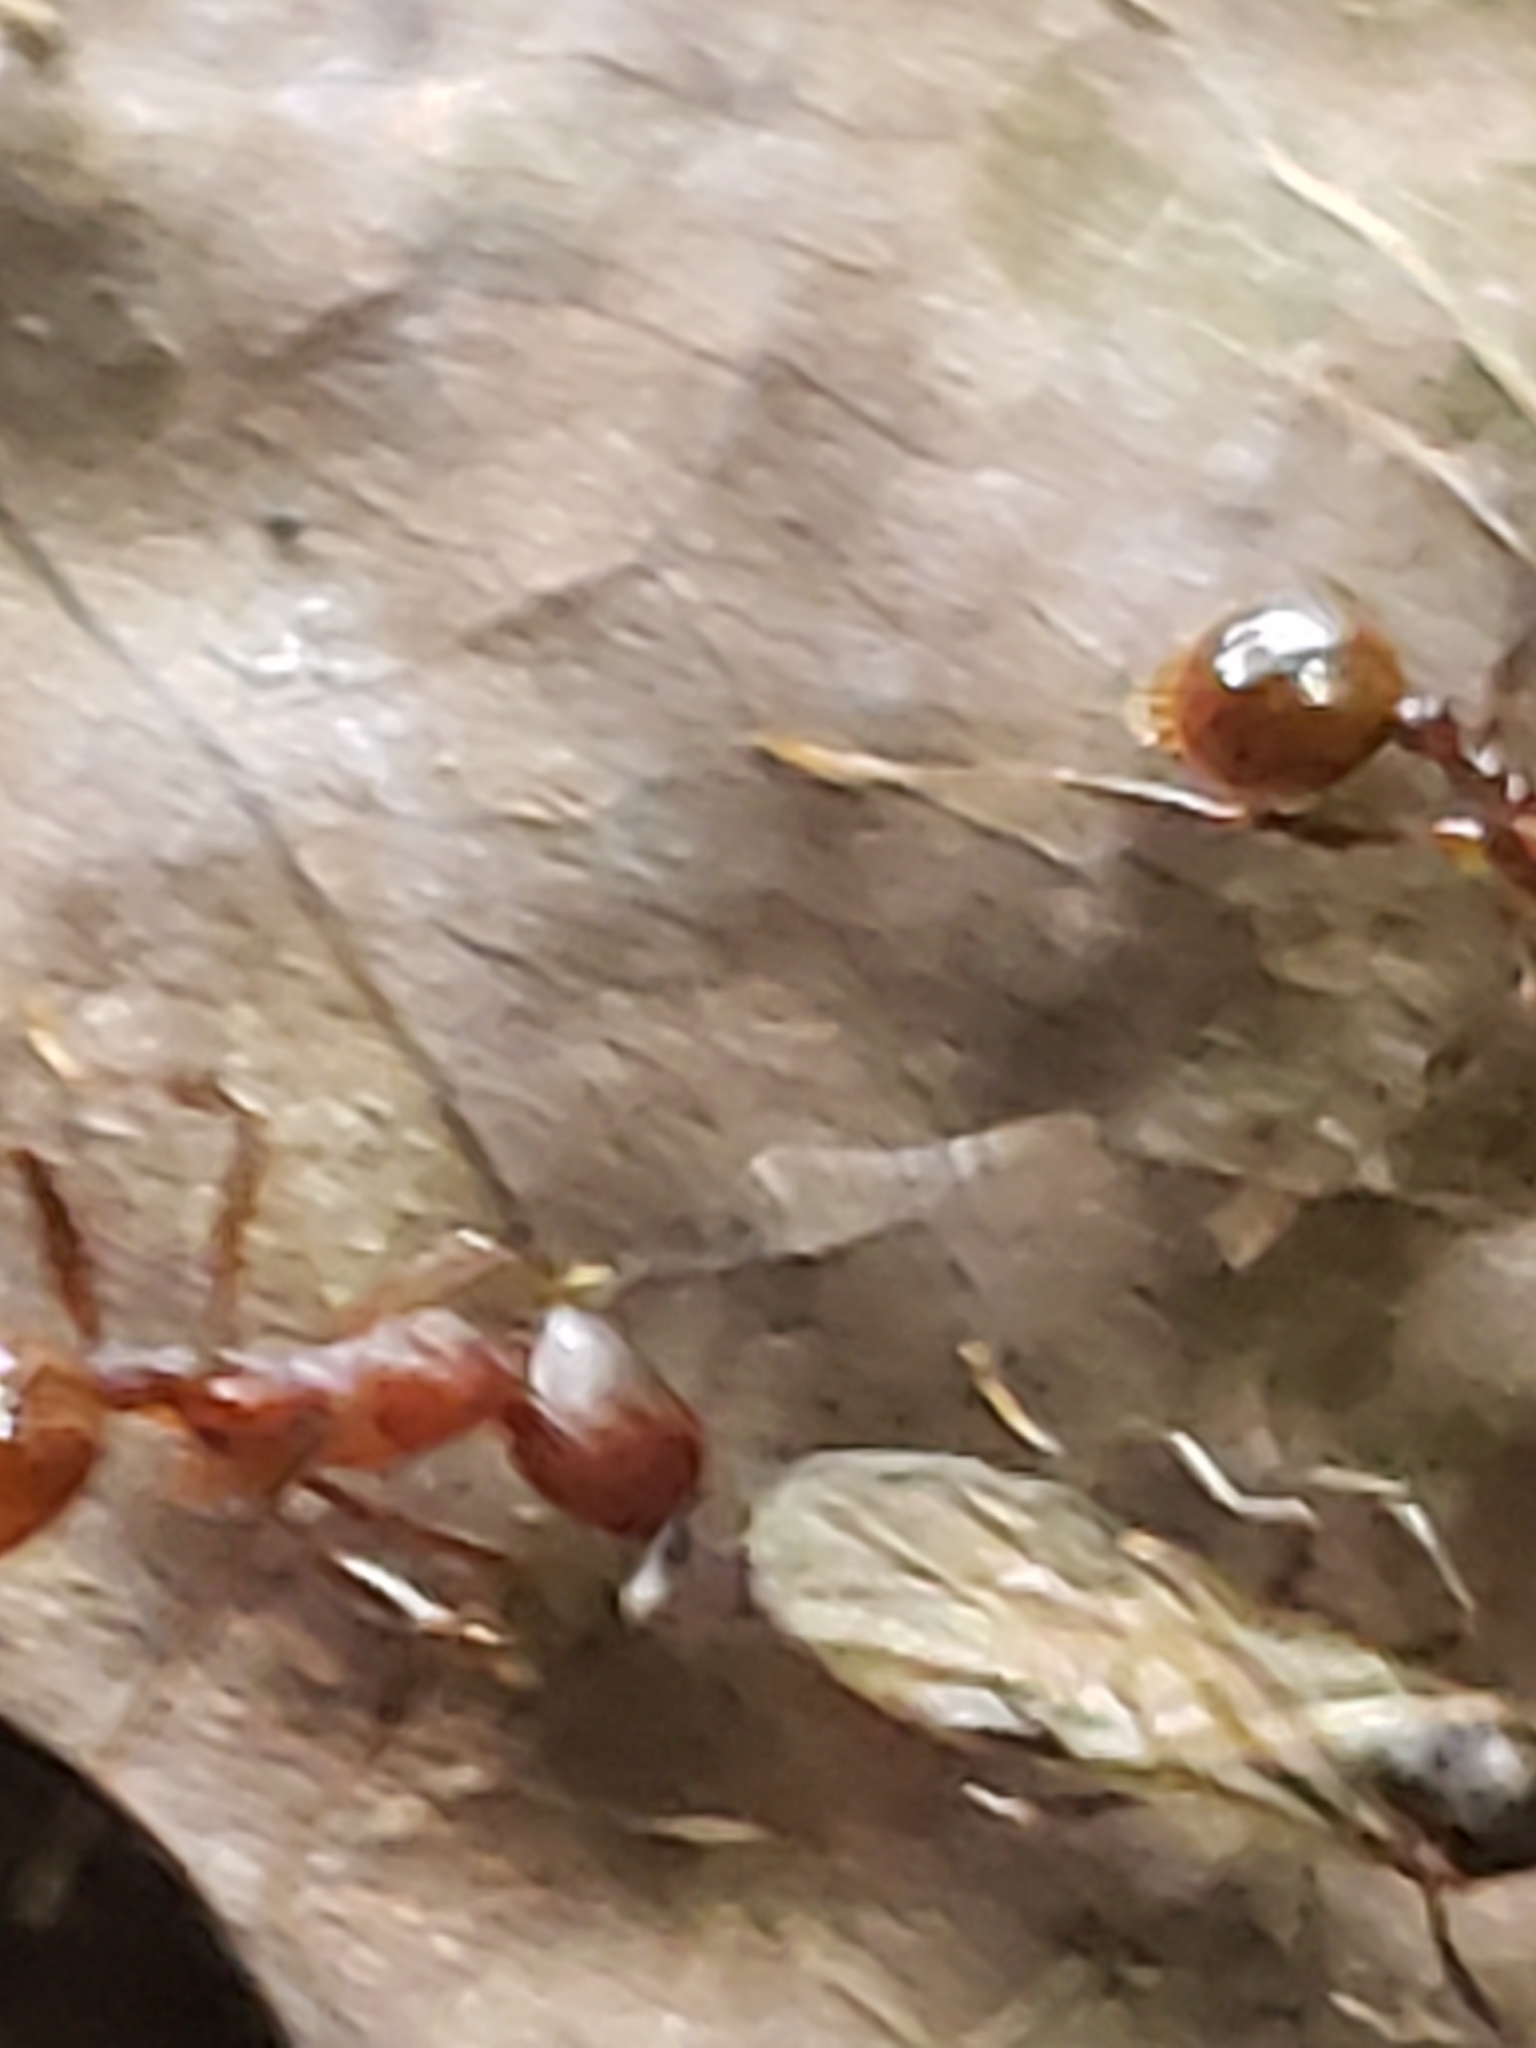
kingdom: Animalia
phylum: Arthropoda
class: Insecta
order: Hymenoptera
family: Formicidae
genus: Aphaenogaster
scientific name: Aphaenogaster tennesseensis
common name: Tennessee thread-waisted ant
